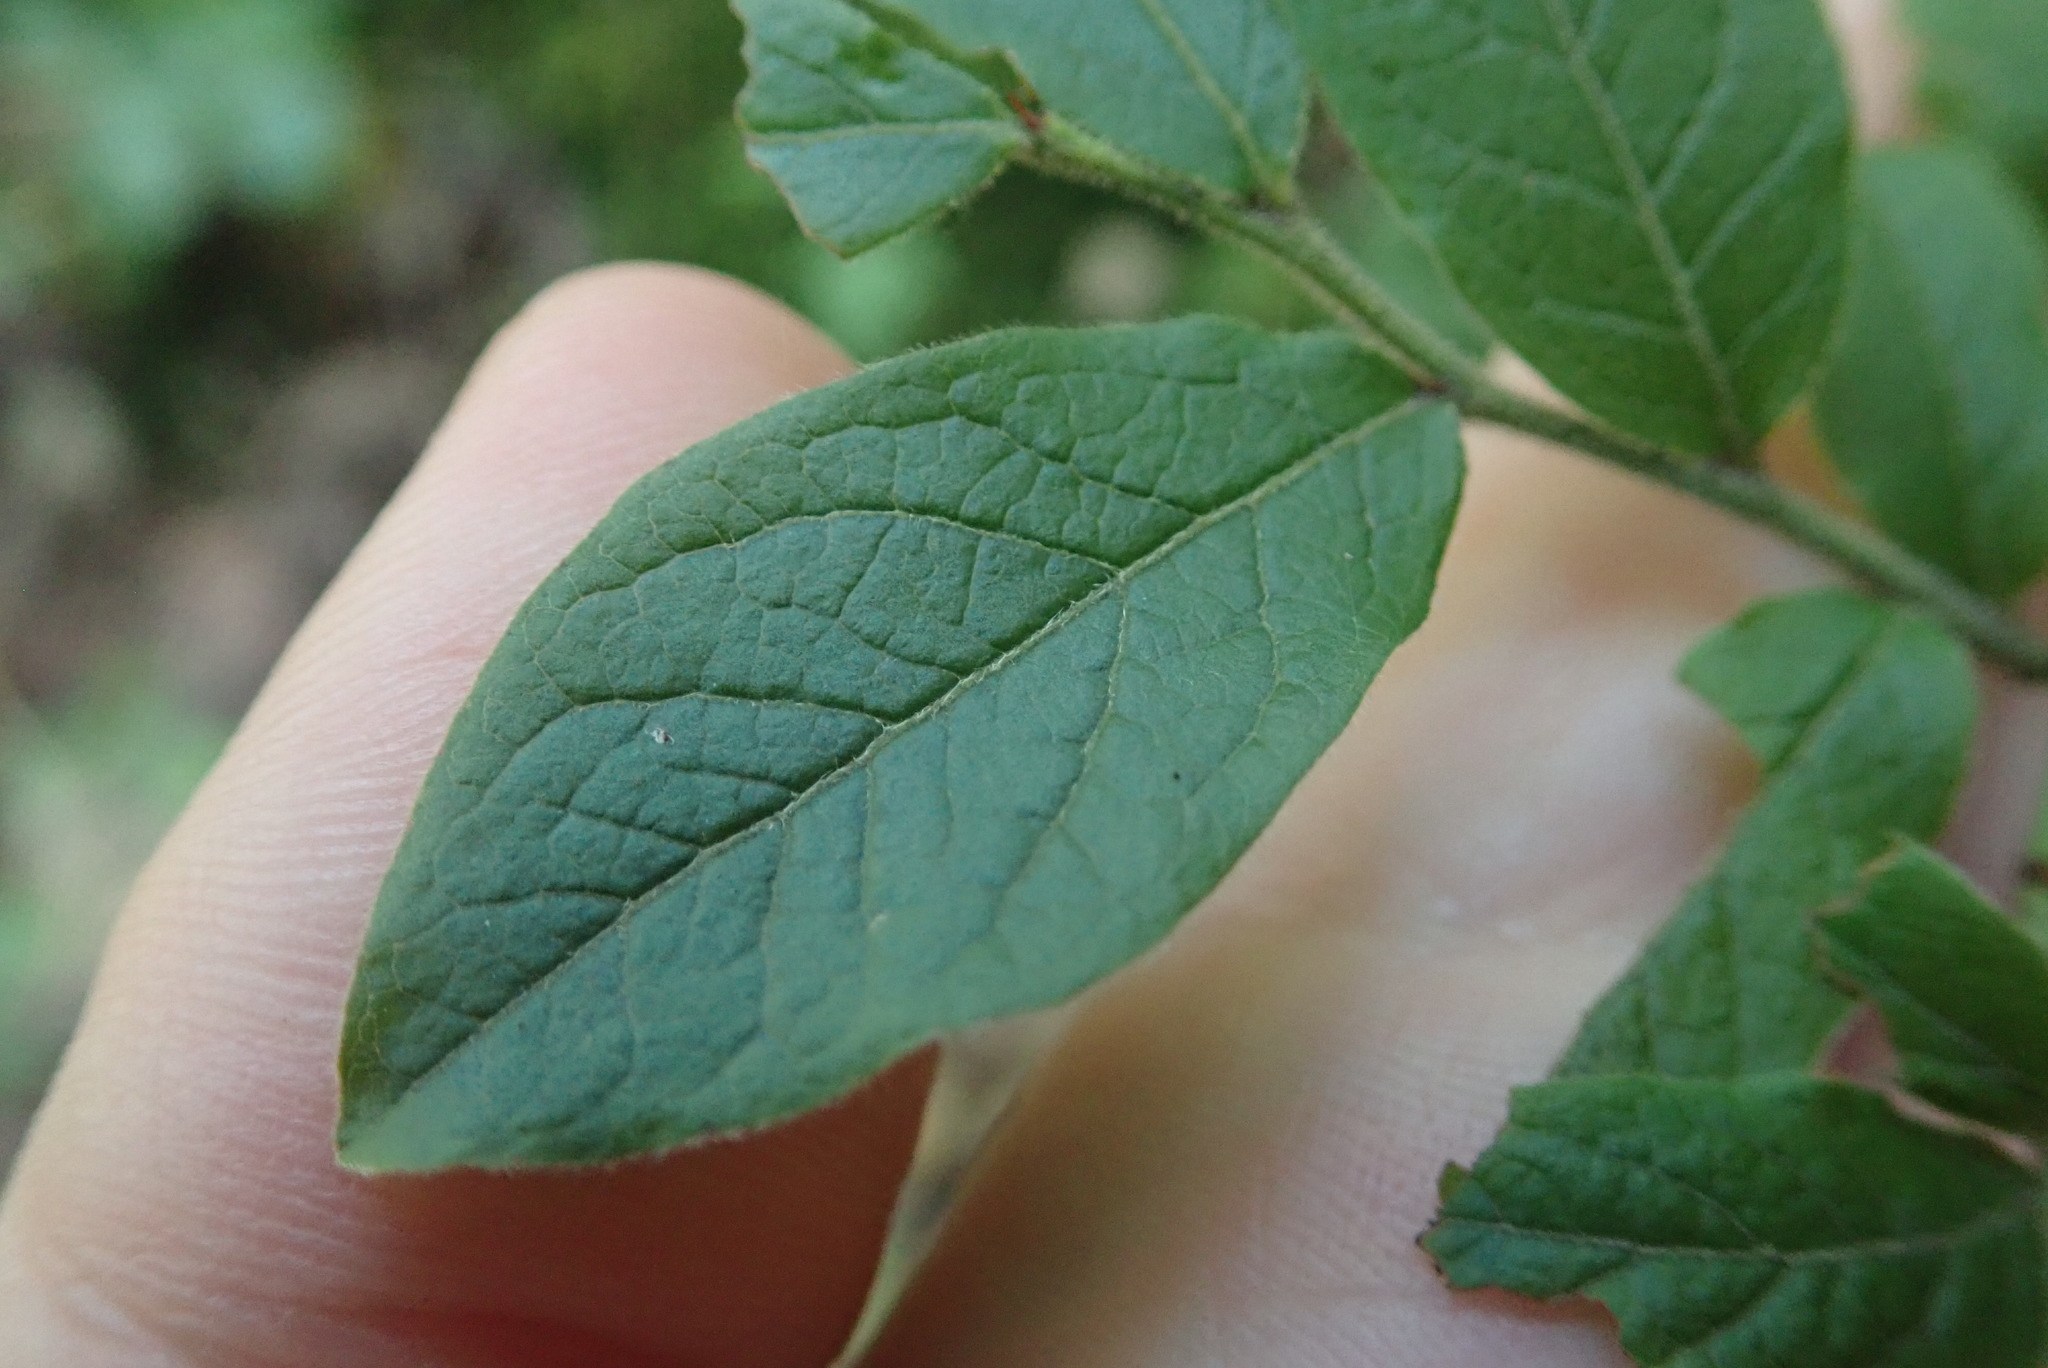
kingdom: Plantae
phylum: Tracheophyta
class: Magnoliopsida
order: Ericales
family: Ericaceae
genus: Vaccinium
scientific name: Vaccinium myrtilloides
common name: Canada blueberry
